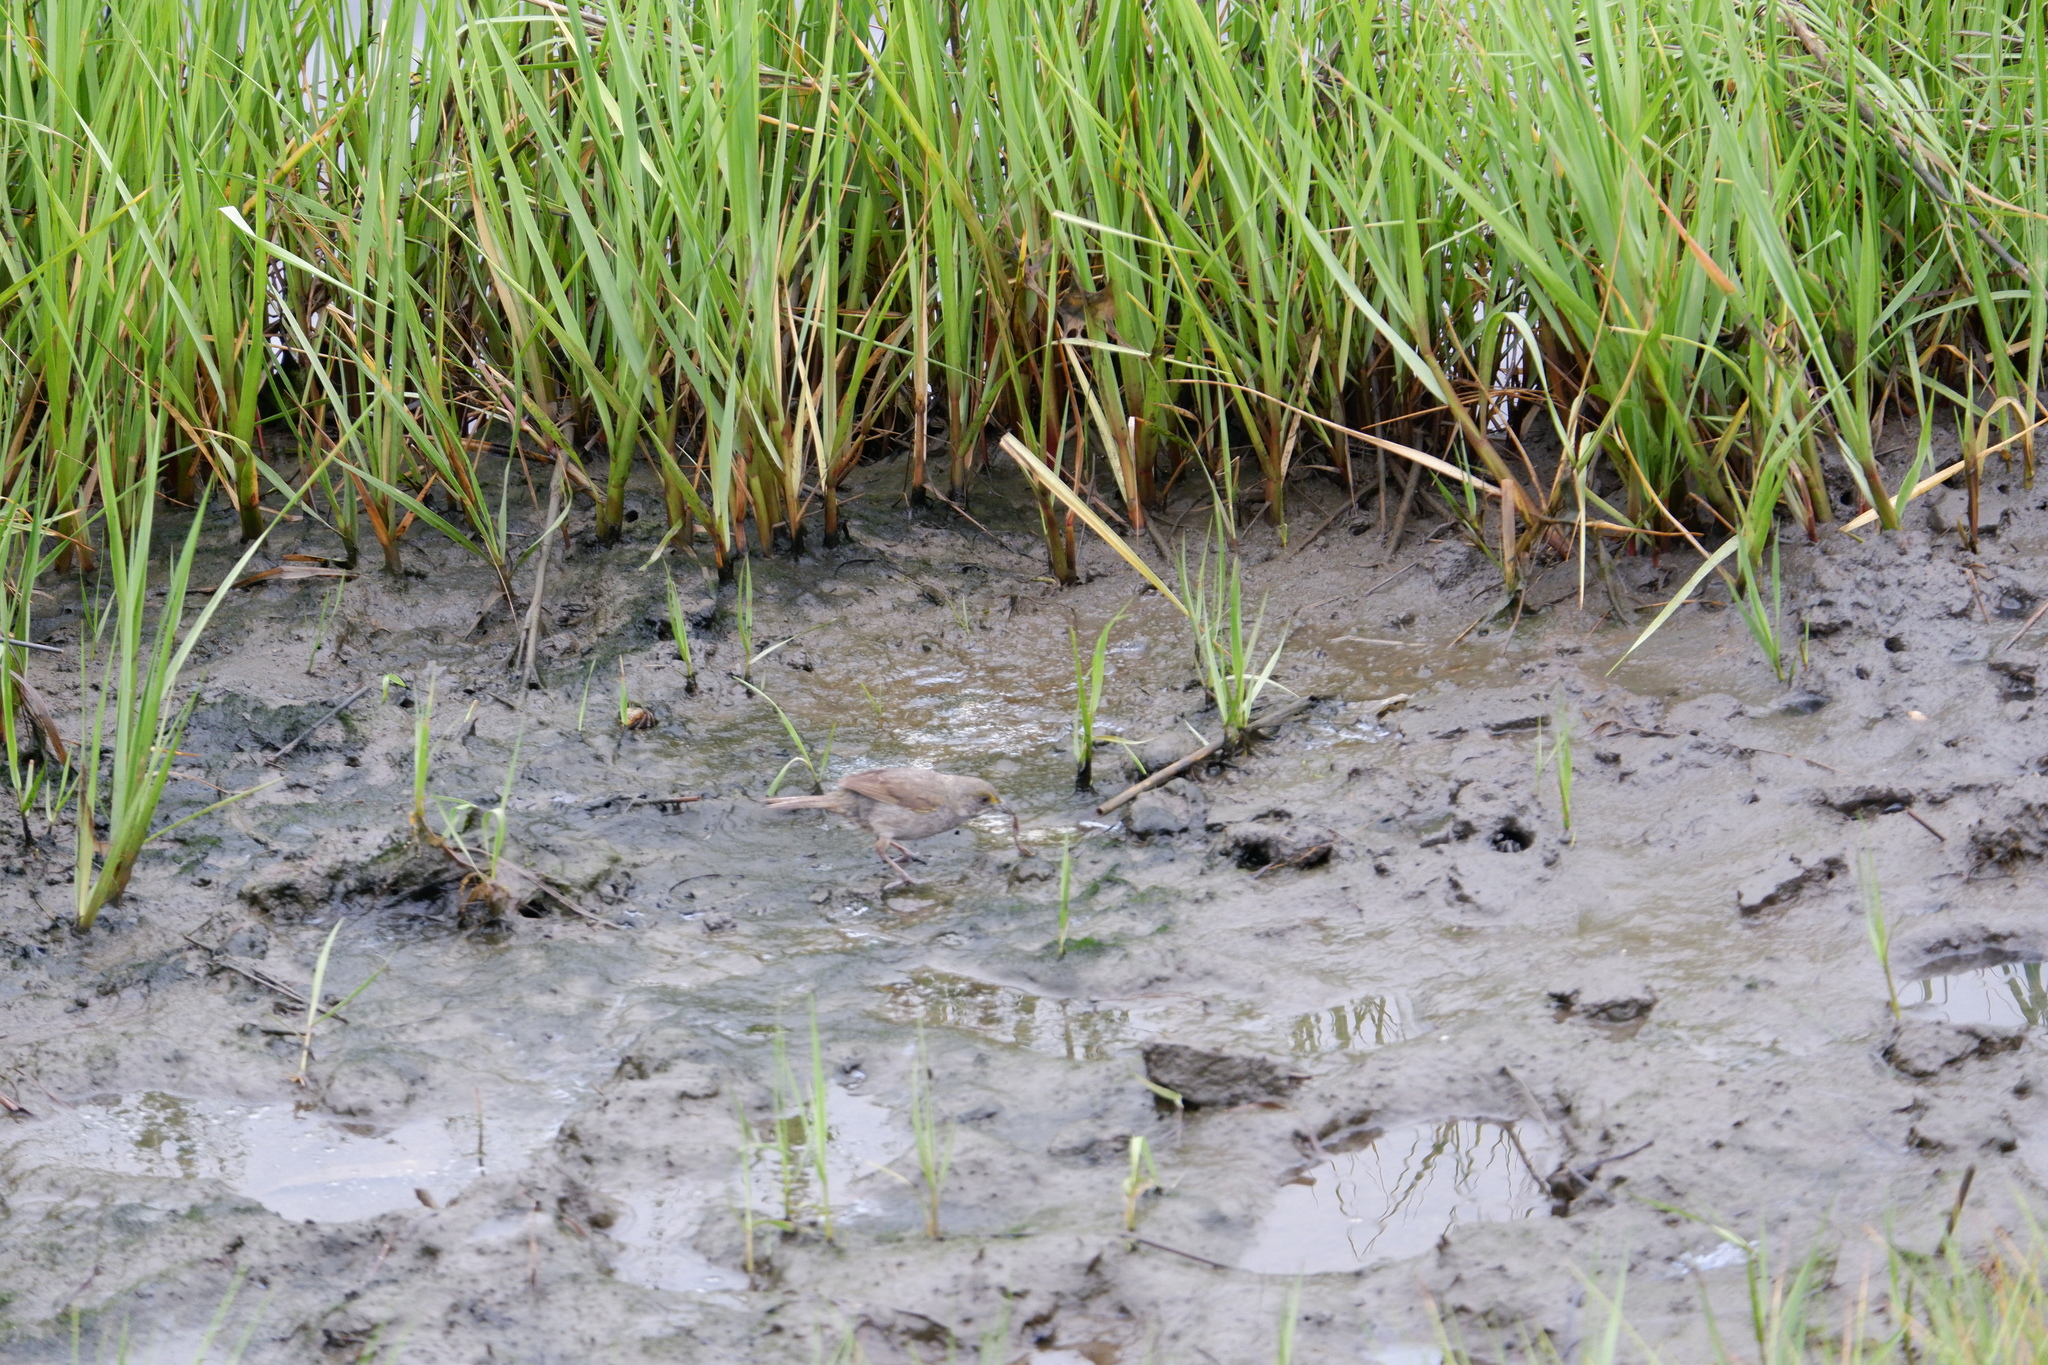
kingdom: Animalia
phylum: Chordata
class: Aves
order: Passeriformes
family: Passerellidae
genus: Ammospiza
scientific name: Ammospiza maritima
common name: Seaside sparrow
